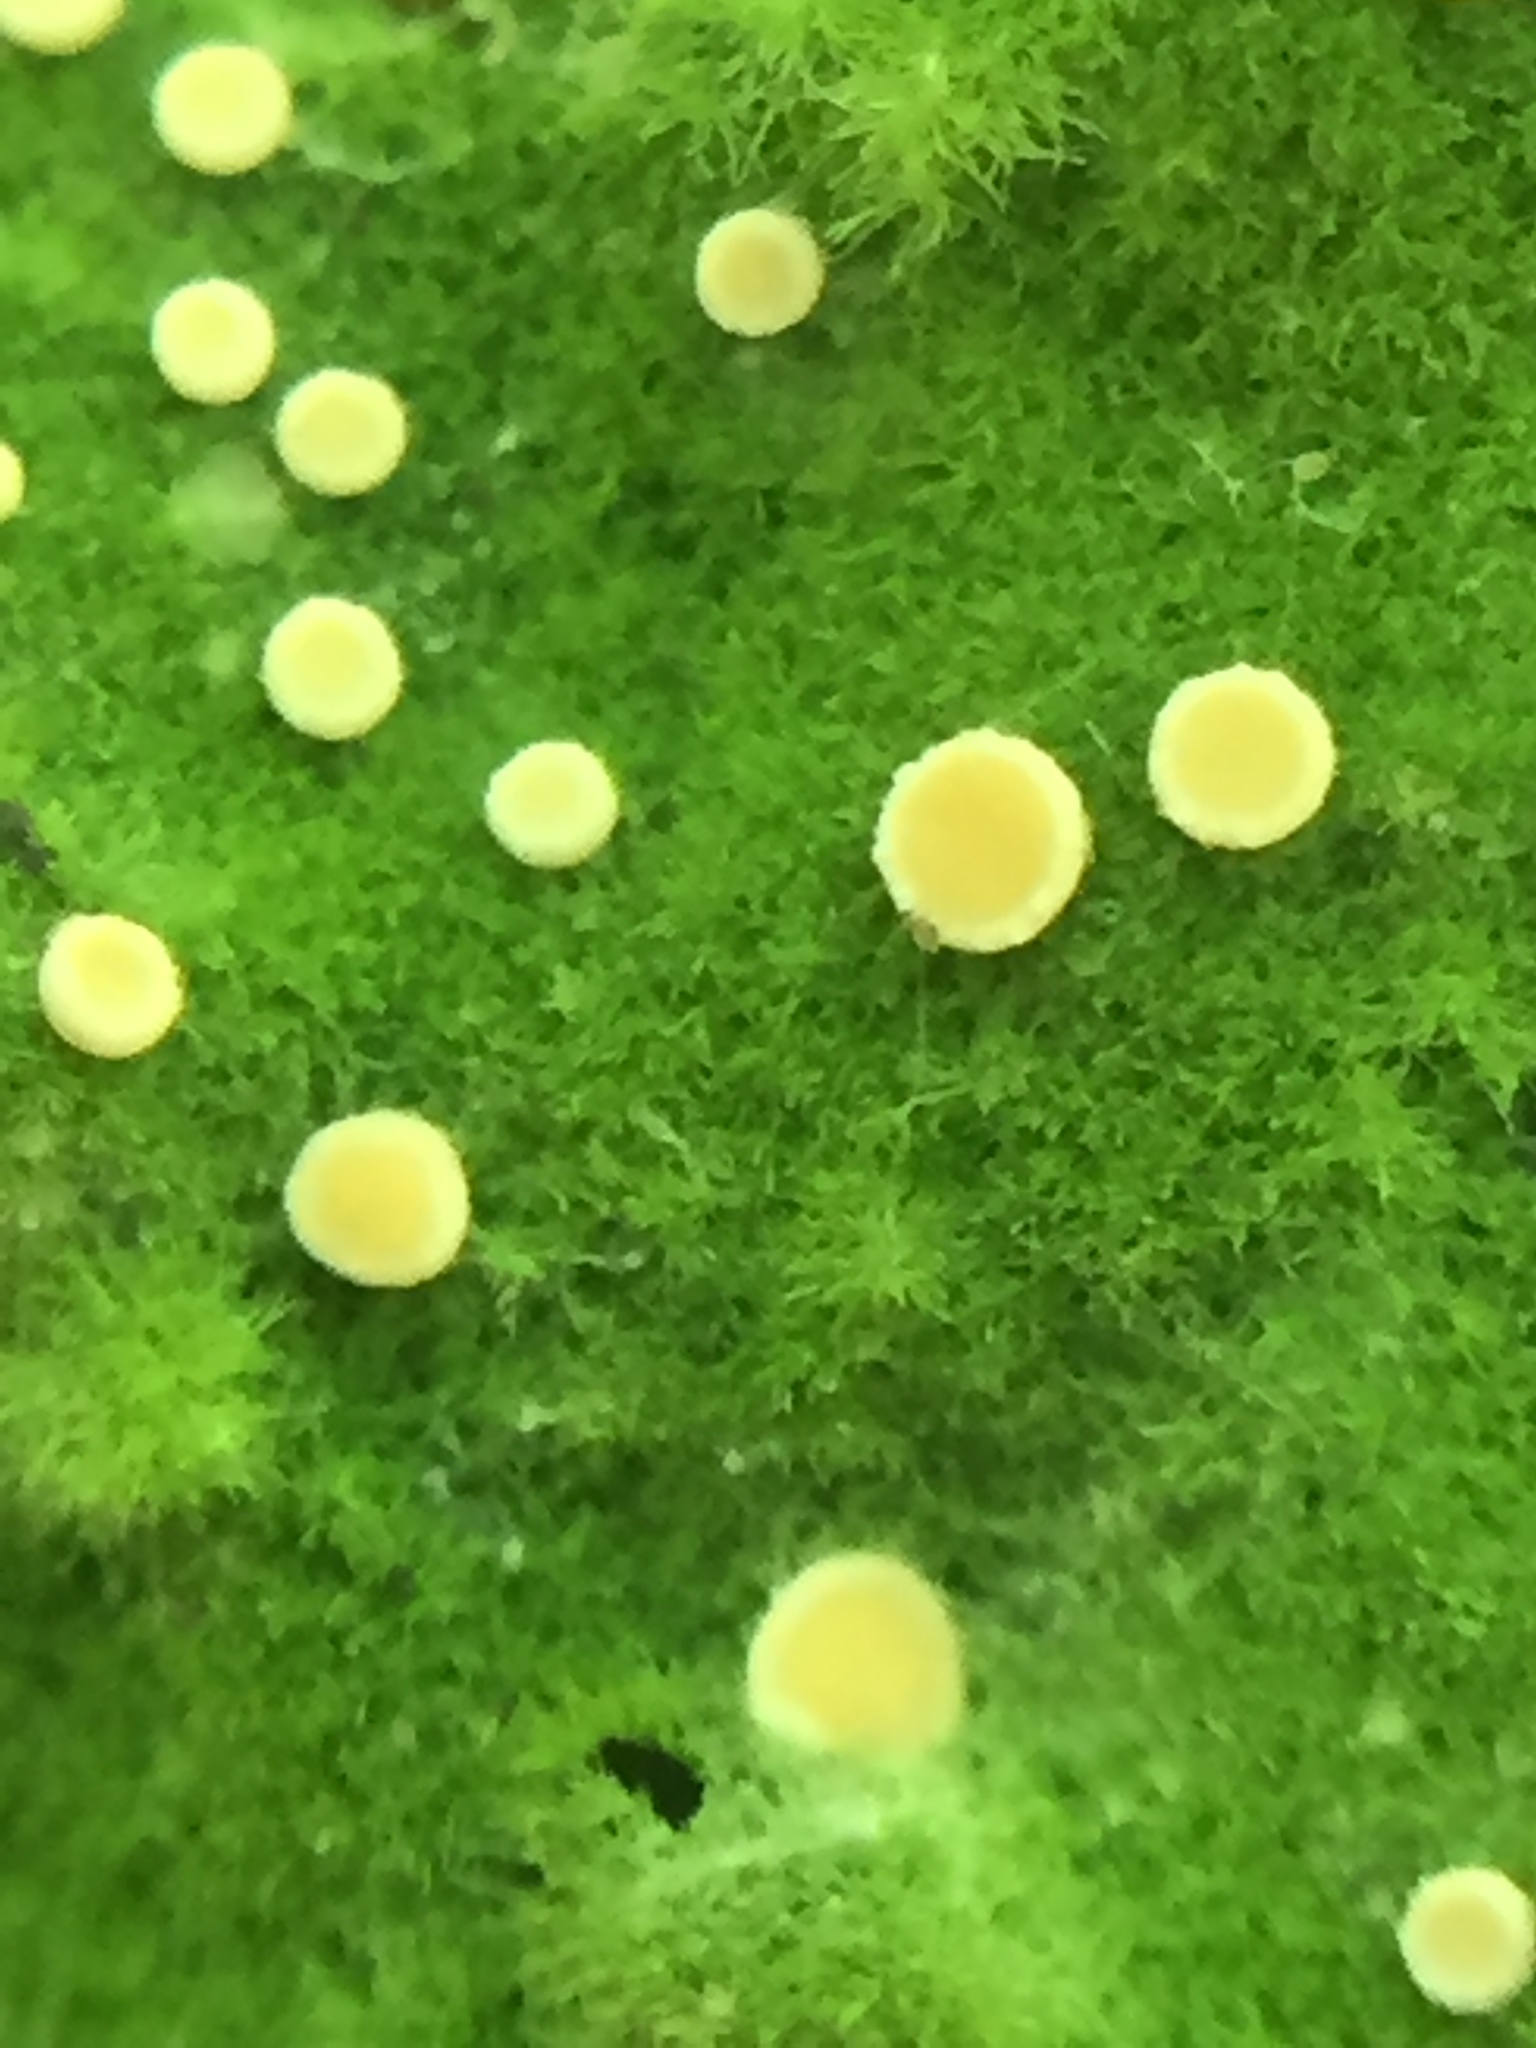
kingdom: Fungi
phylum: Ascomycota
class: Lecanoromycetes
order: Ostropales
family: Coenogoniaceae
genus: Coenogonium
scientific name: Coenogonium implexum
